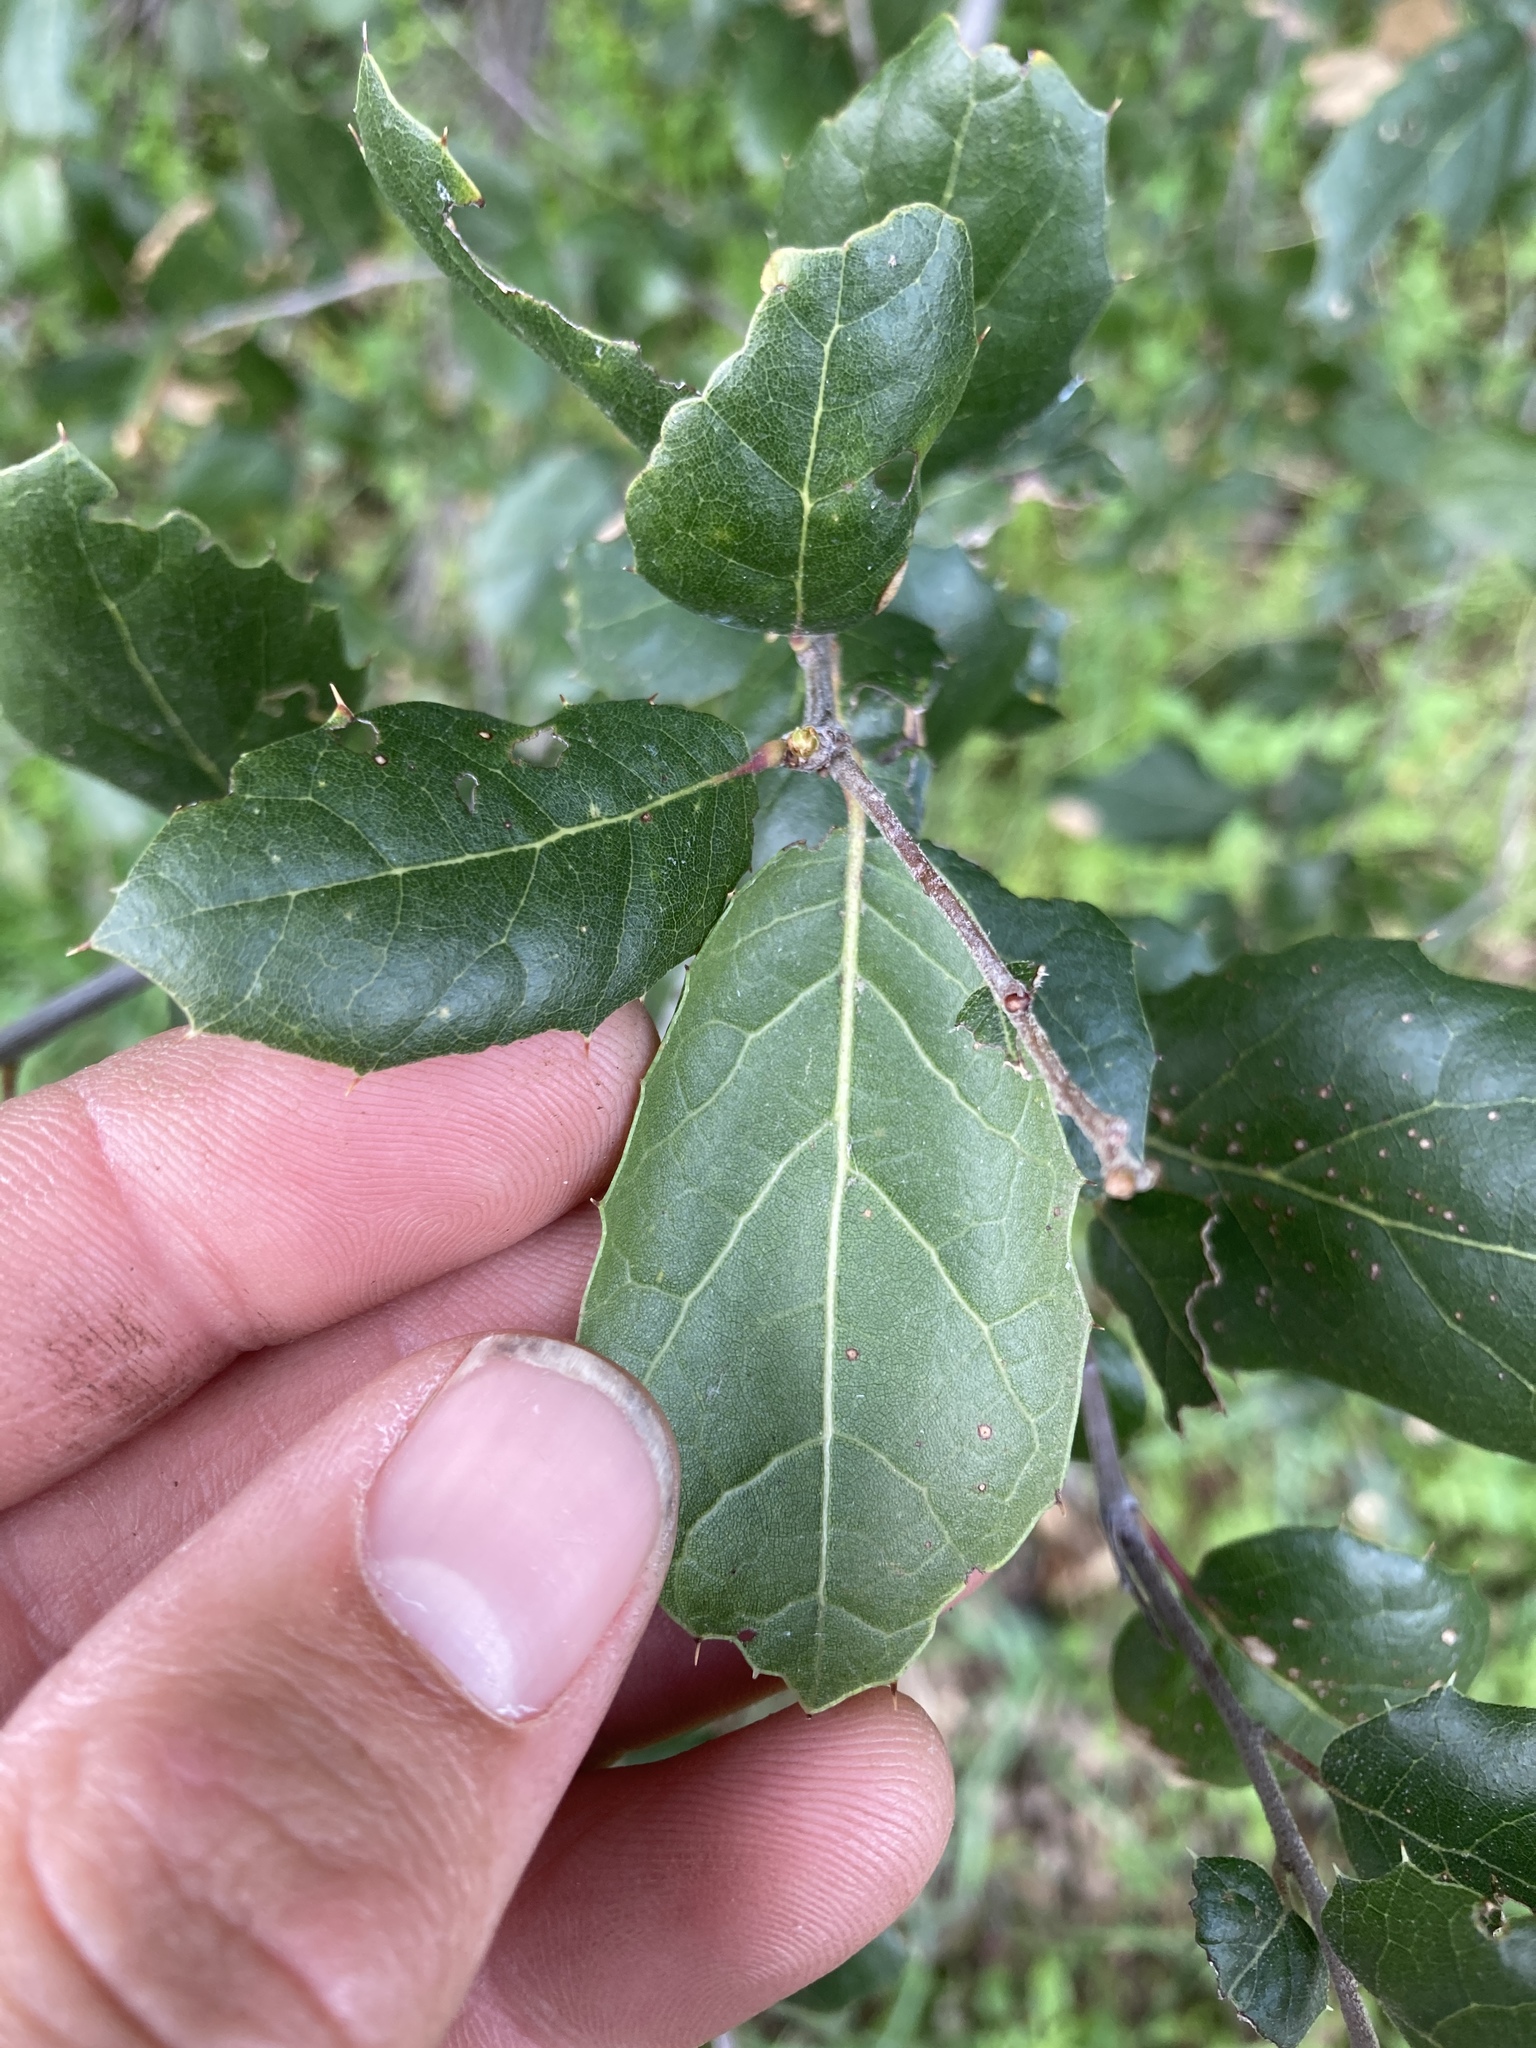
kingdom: Plantae
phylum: Tracheophyta
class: Magnoliopsida
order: Fagales
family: Fagaceae
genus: Quercus
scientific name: Quercus agrifolia
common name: California live oak
